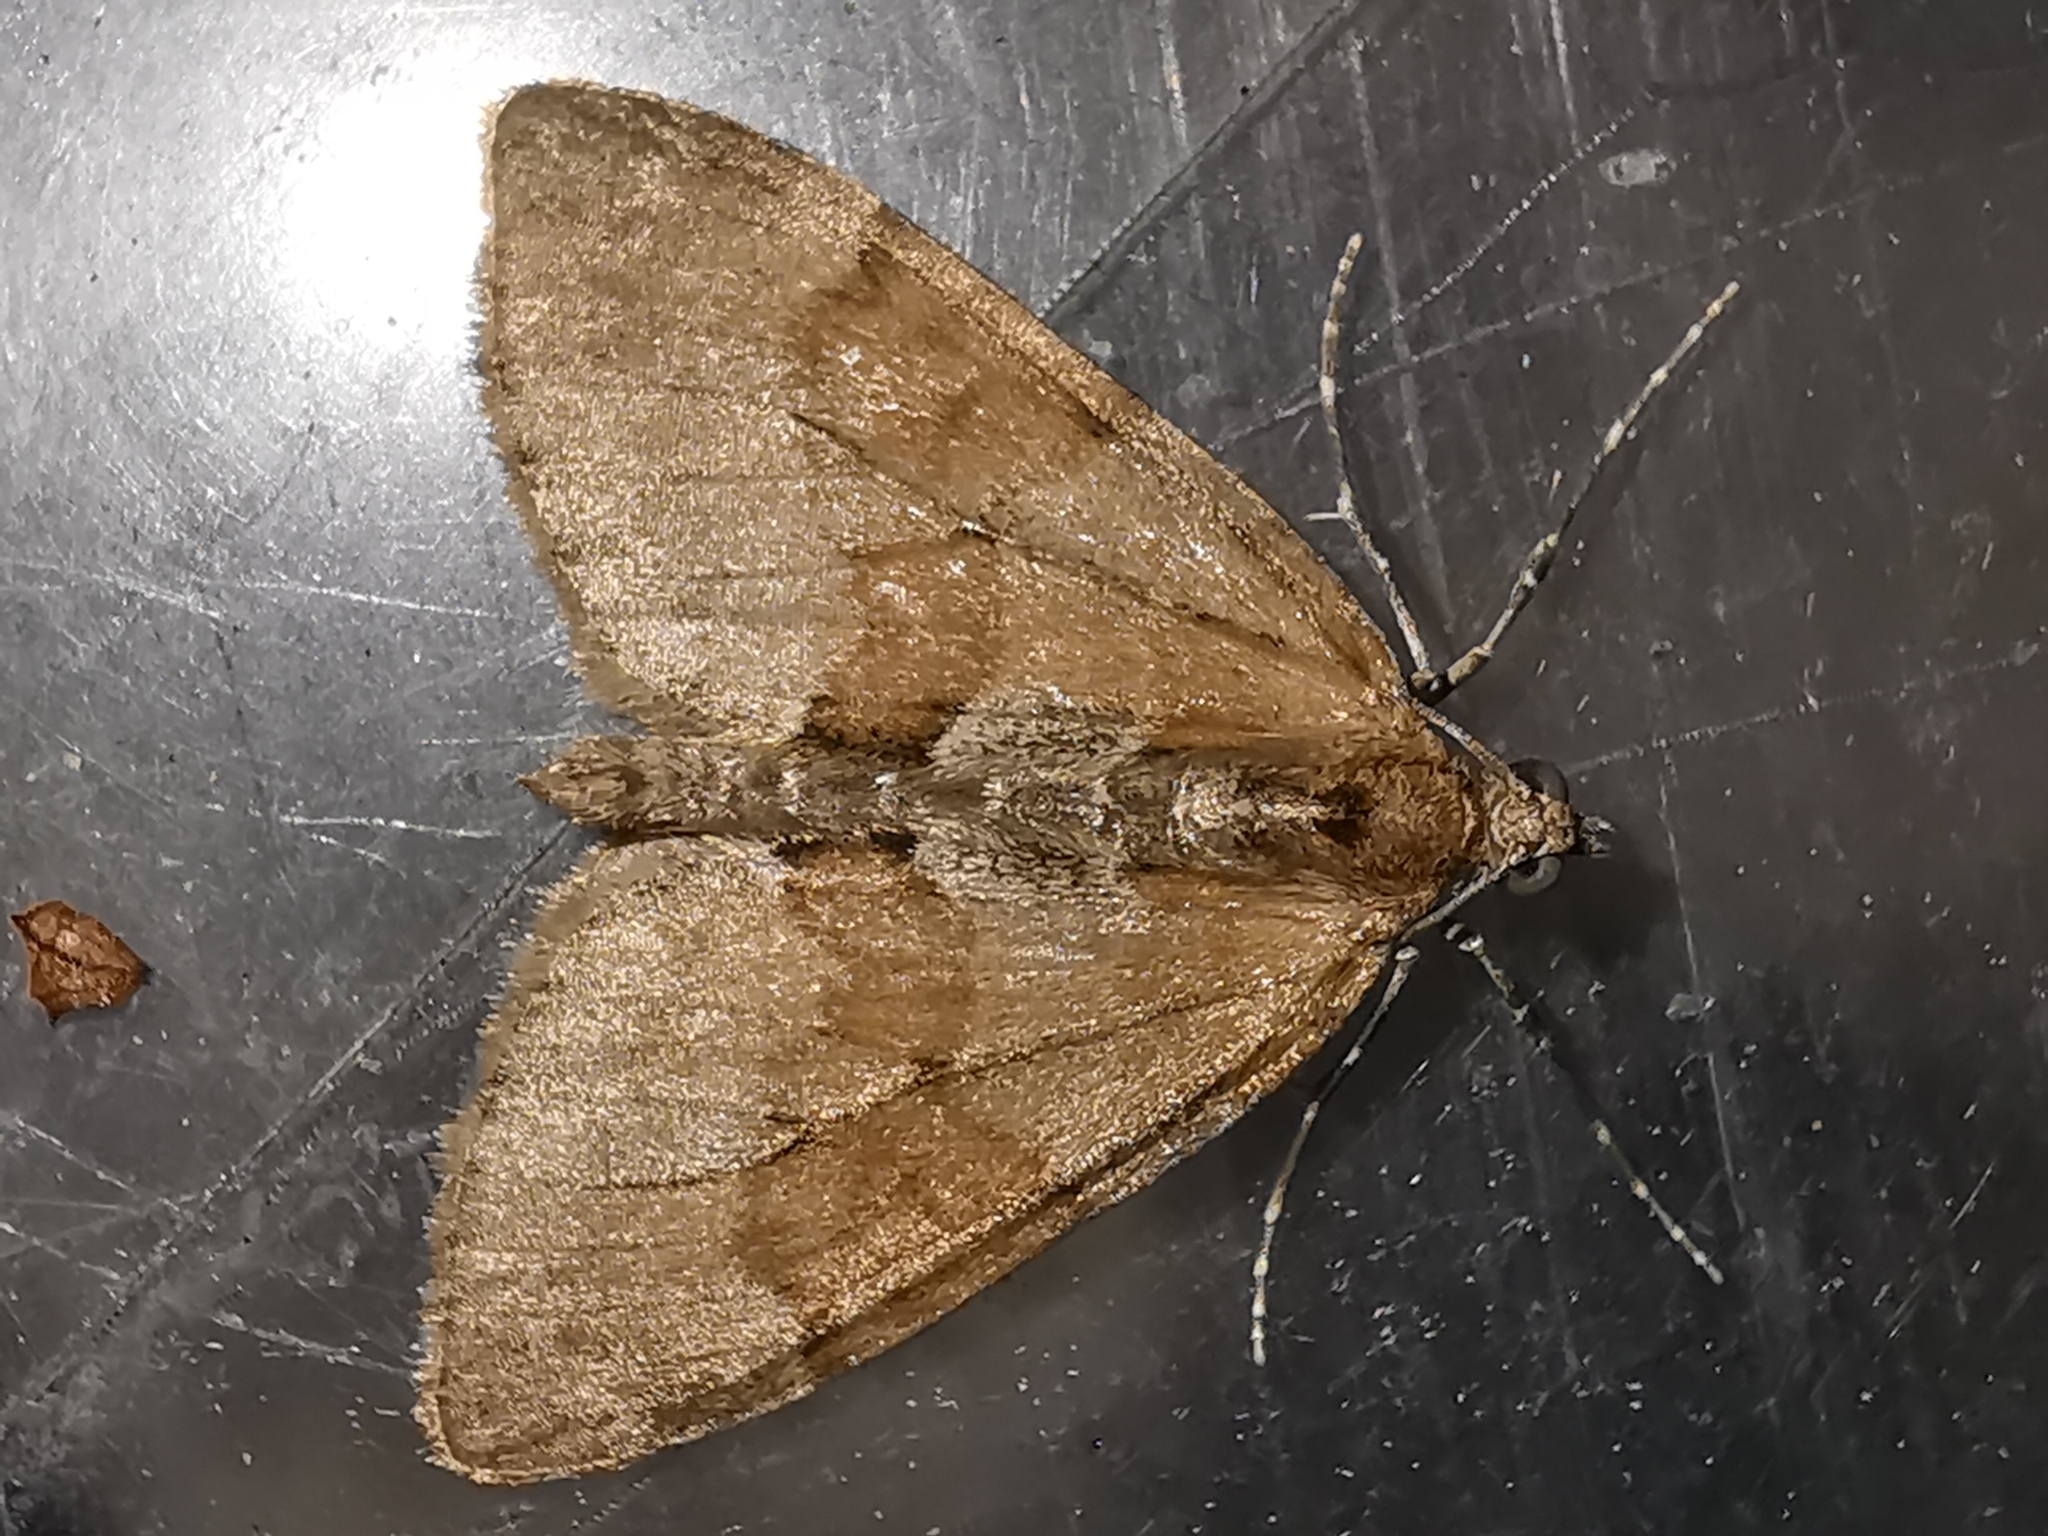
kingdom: Animalia
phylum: Arthropoda
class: Insecta
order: Lepidoptera
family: Geometridae
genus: Thera
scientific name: Thera obeliscata
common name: Grey pine carpet
